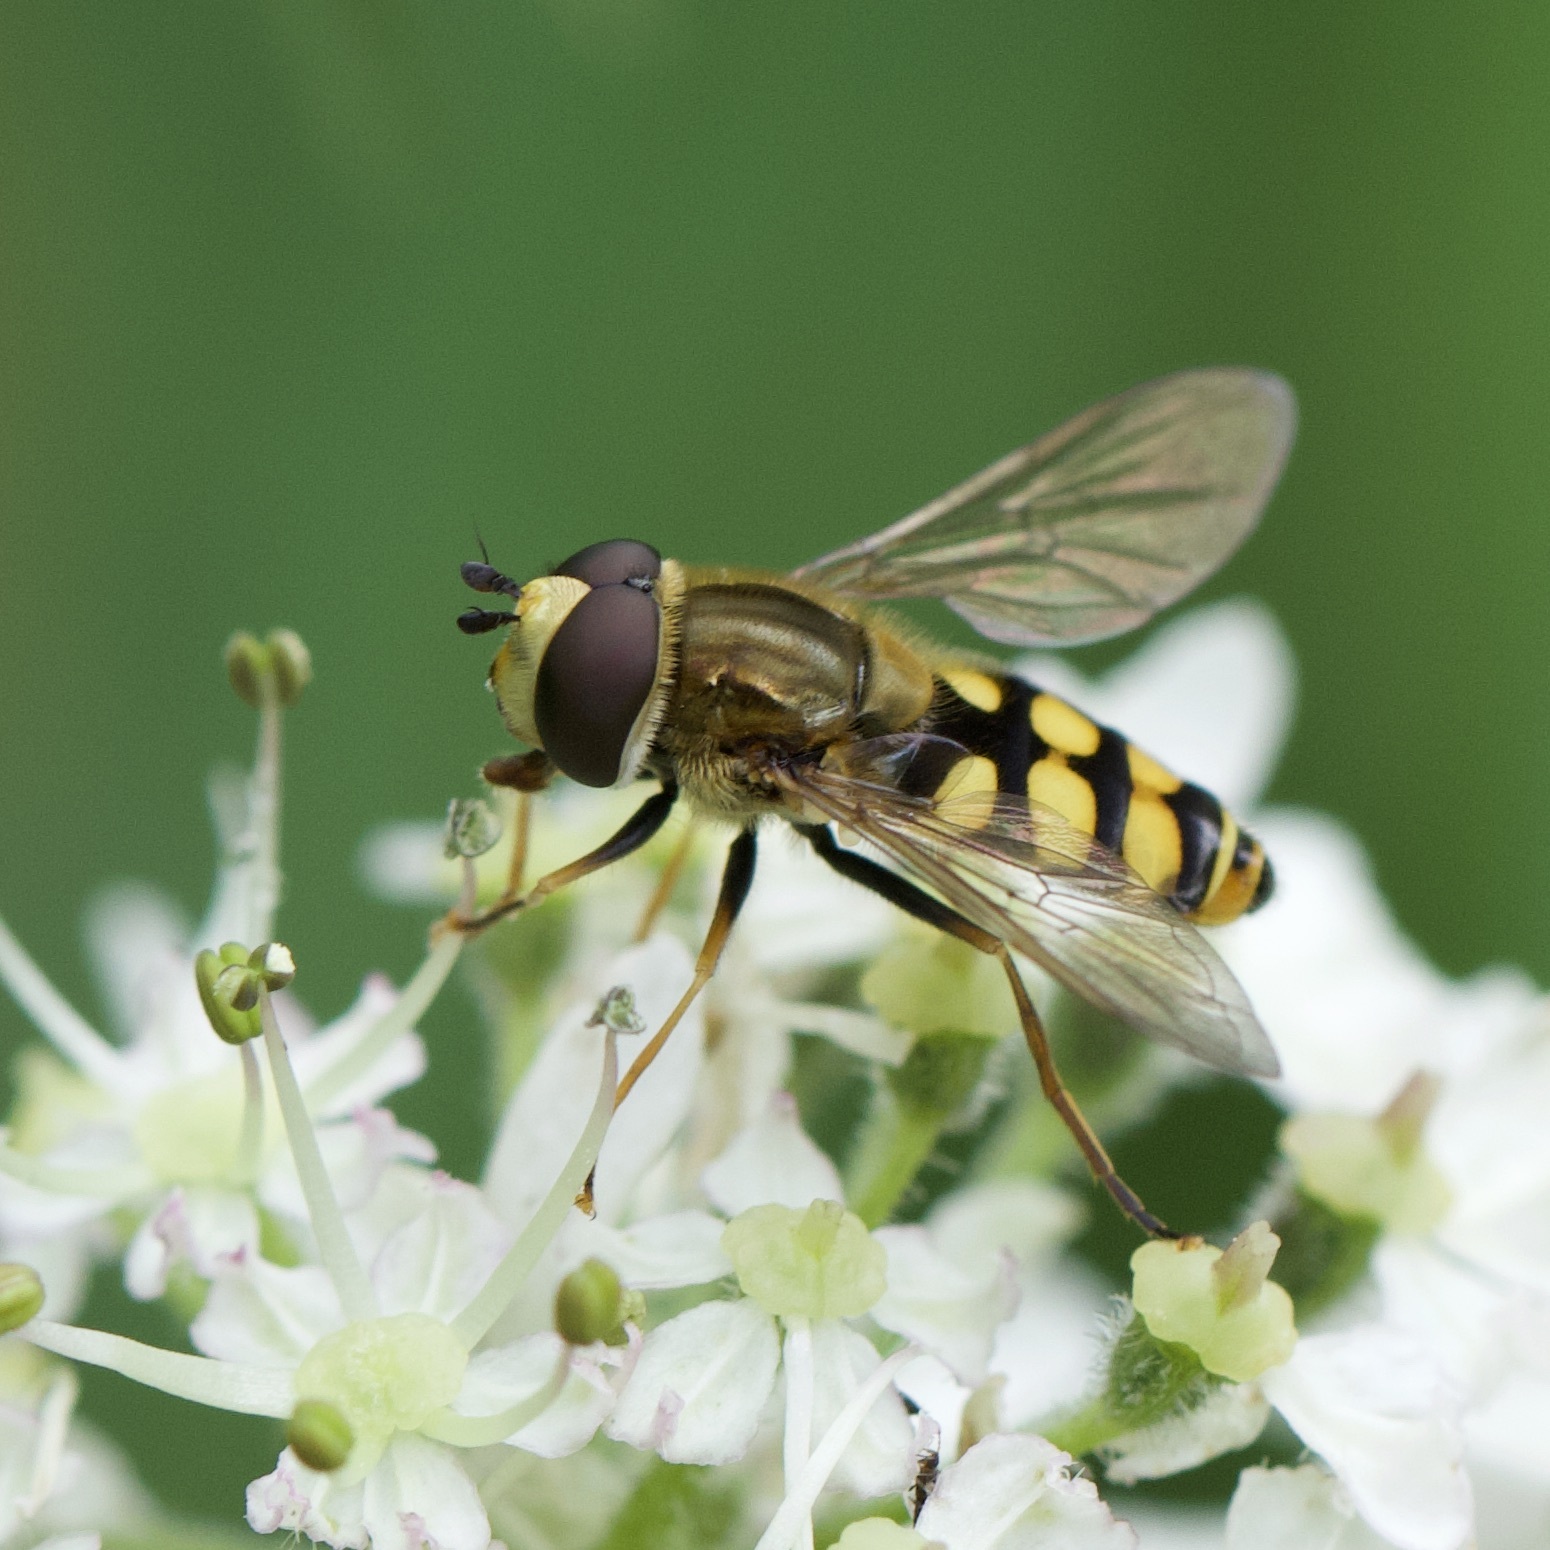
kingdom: Animalia
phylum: Arthropoda
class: Insecta
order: Diptera
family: Syrphidae
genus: Eupeodes
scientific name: Eupeodes corollae
